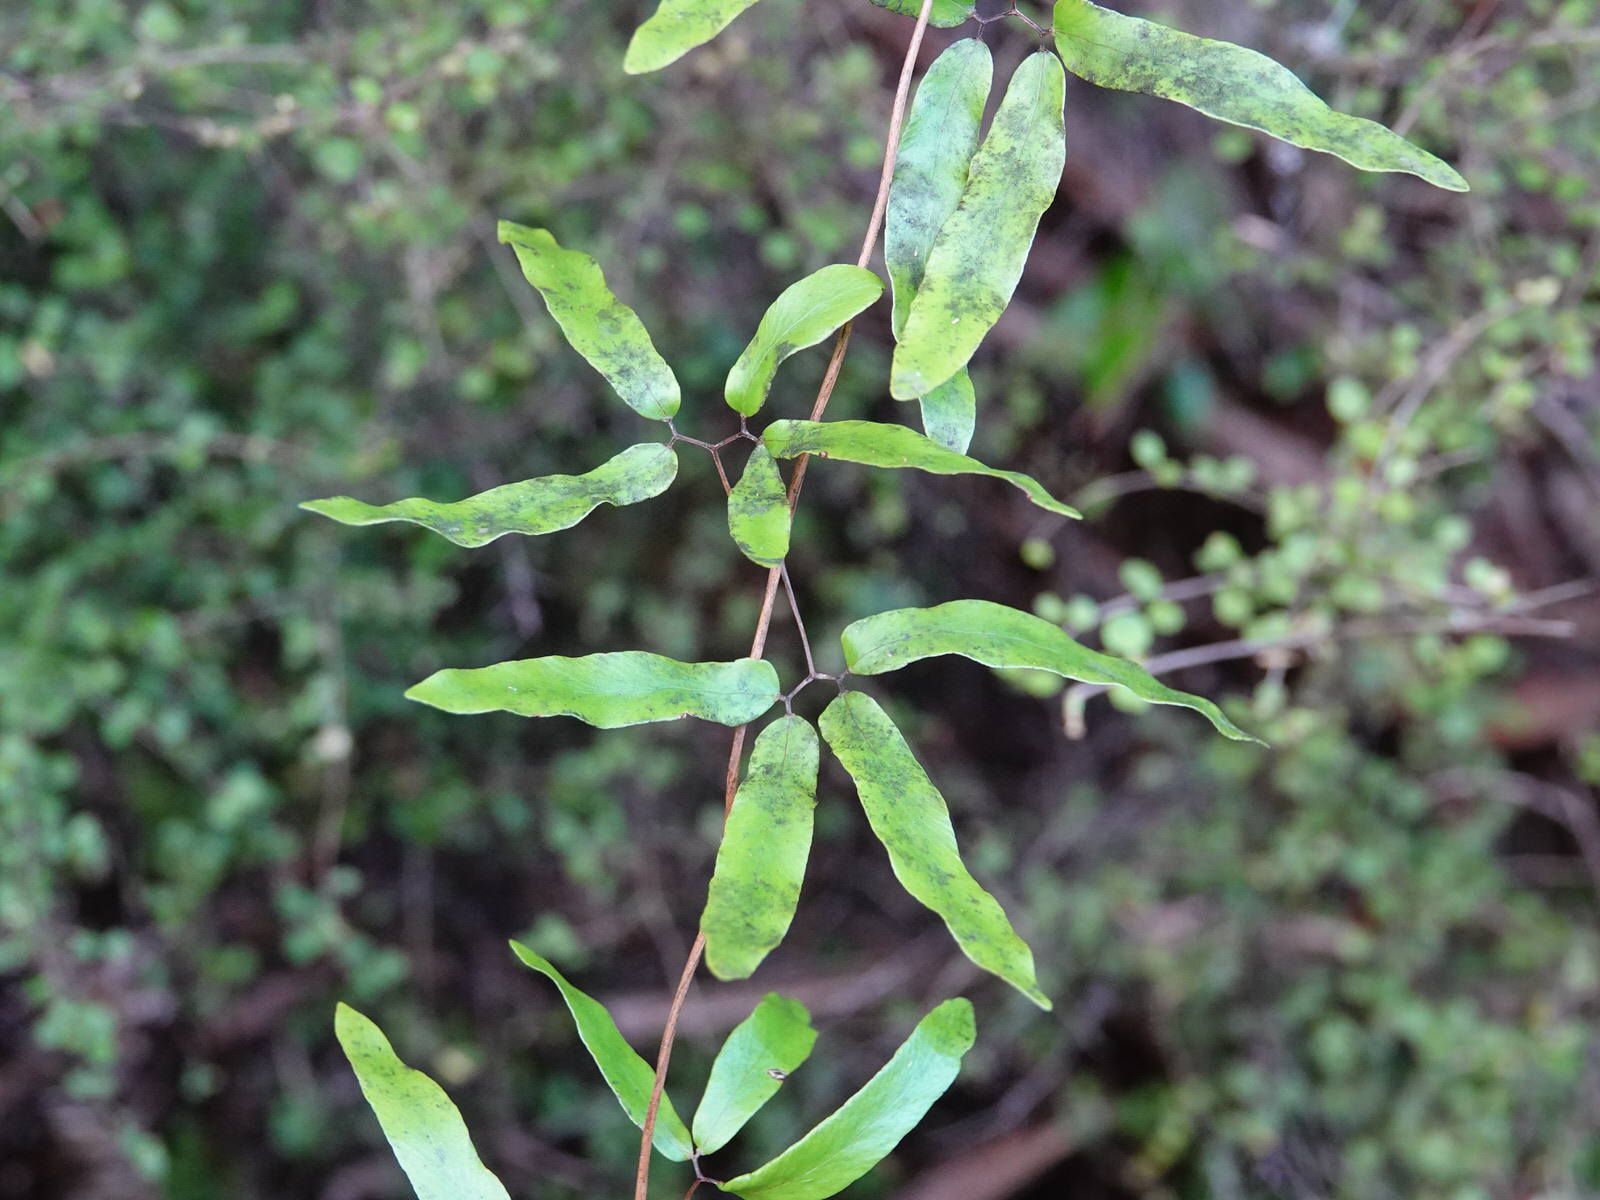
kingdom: Plantae
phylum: Tracheophyta
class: Polypodiopsida
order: Schizaeales
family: Lygodiaceae
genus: Lygodium
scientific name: Lygodium articulatum
